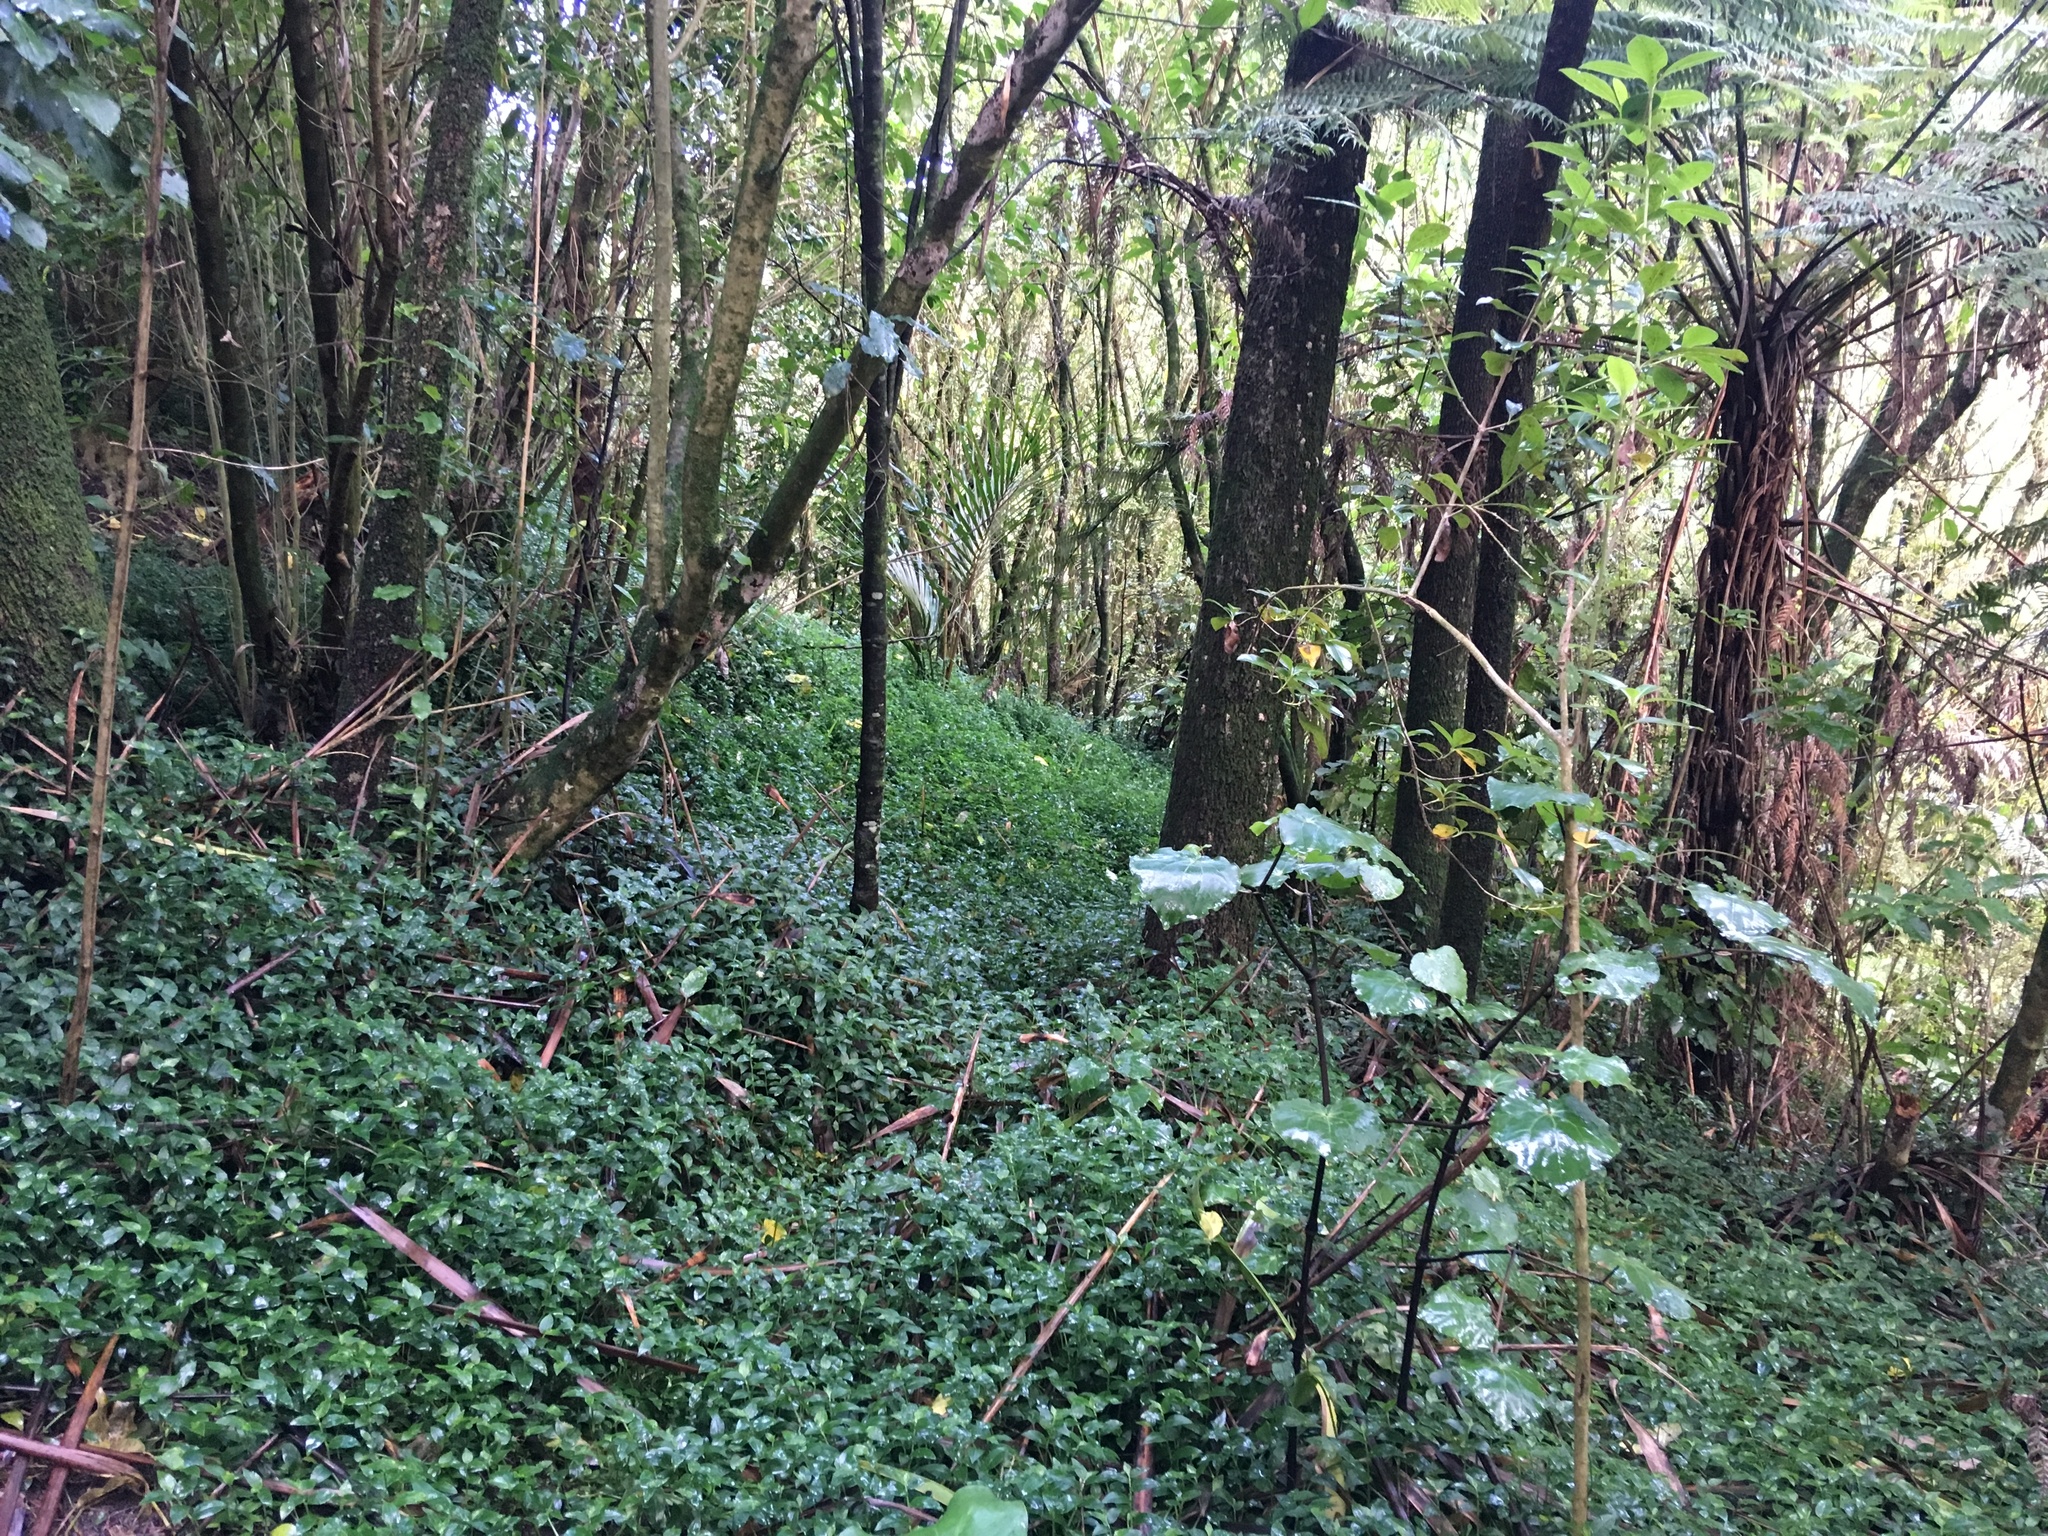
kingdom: Plantae
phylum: Tracheophyta
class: Magnoliopsida
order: Piperales
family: Piperaceae
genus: Macropiper
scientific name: Macropiper excelsum
